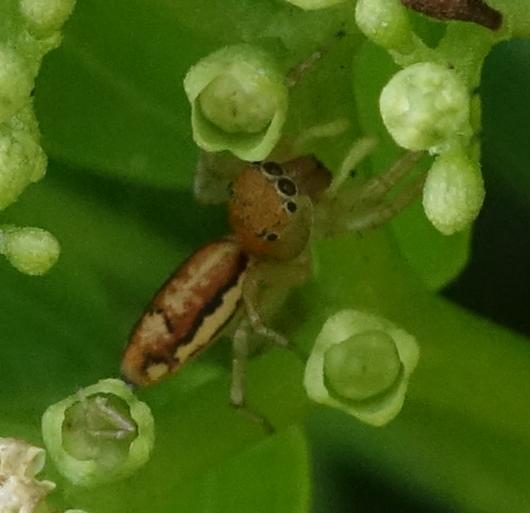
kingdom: Animalia
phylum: Arthropoda
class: Arachnida
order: Araneae
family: Salticidae
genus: Cosmophasis
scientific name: Cosmophasis lami
